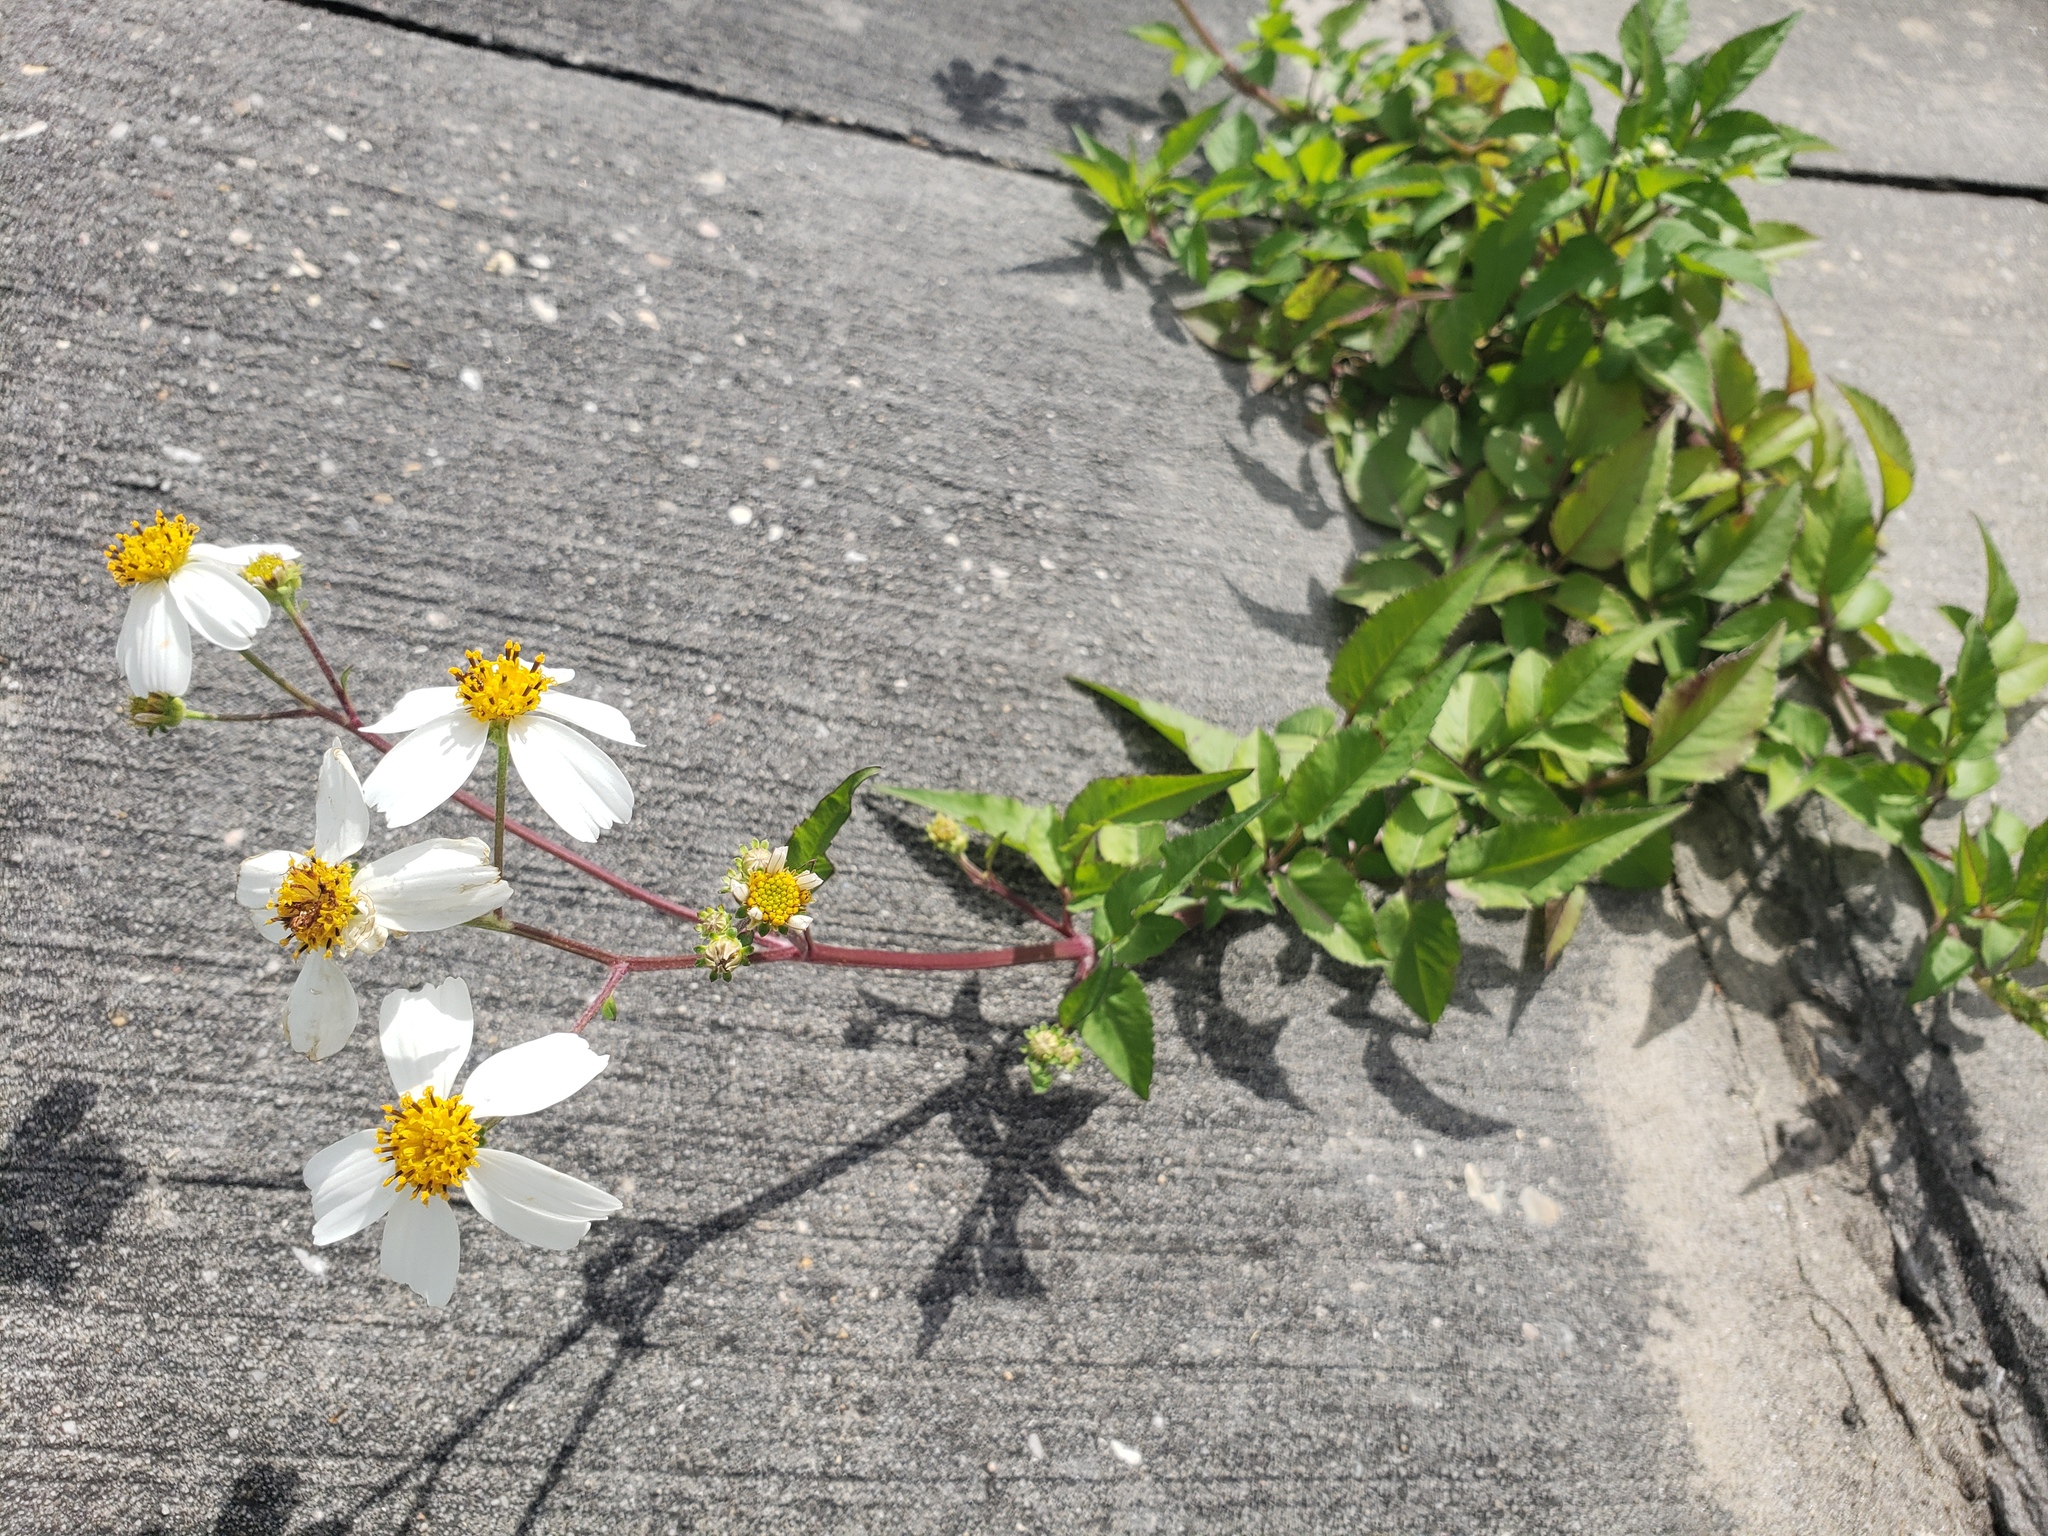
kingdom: Plantae
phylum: Tracheophyta
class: Magnoliopsida
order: Asterales
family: Asteraceae
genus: Bidens
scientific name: Bidens alba
